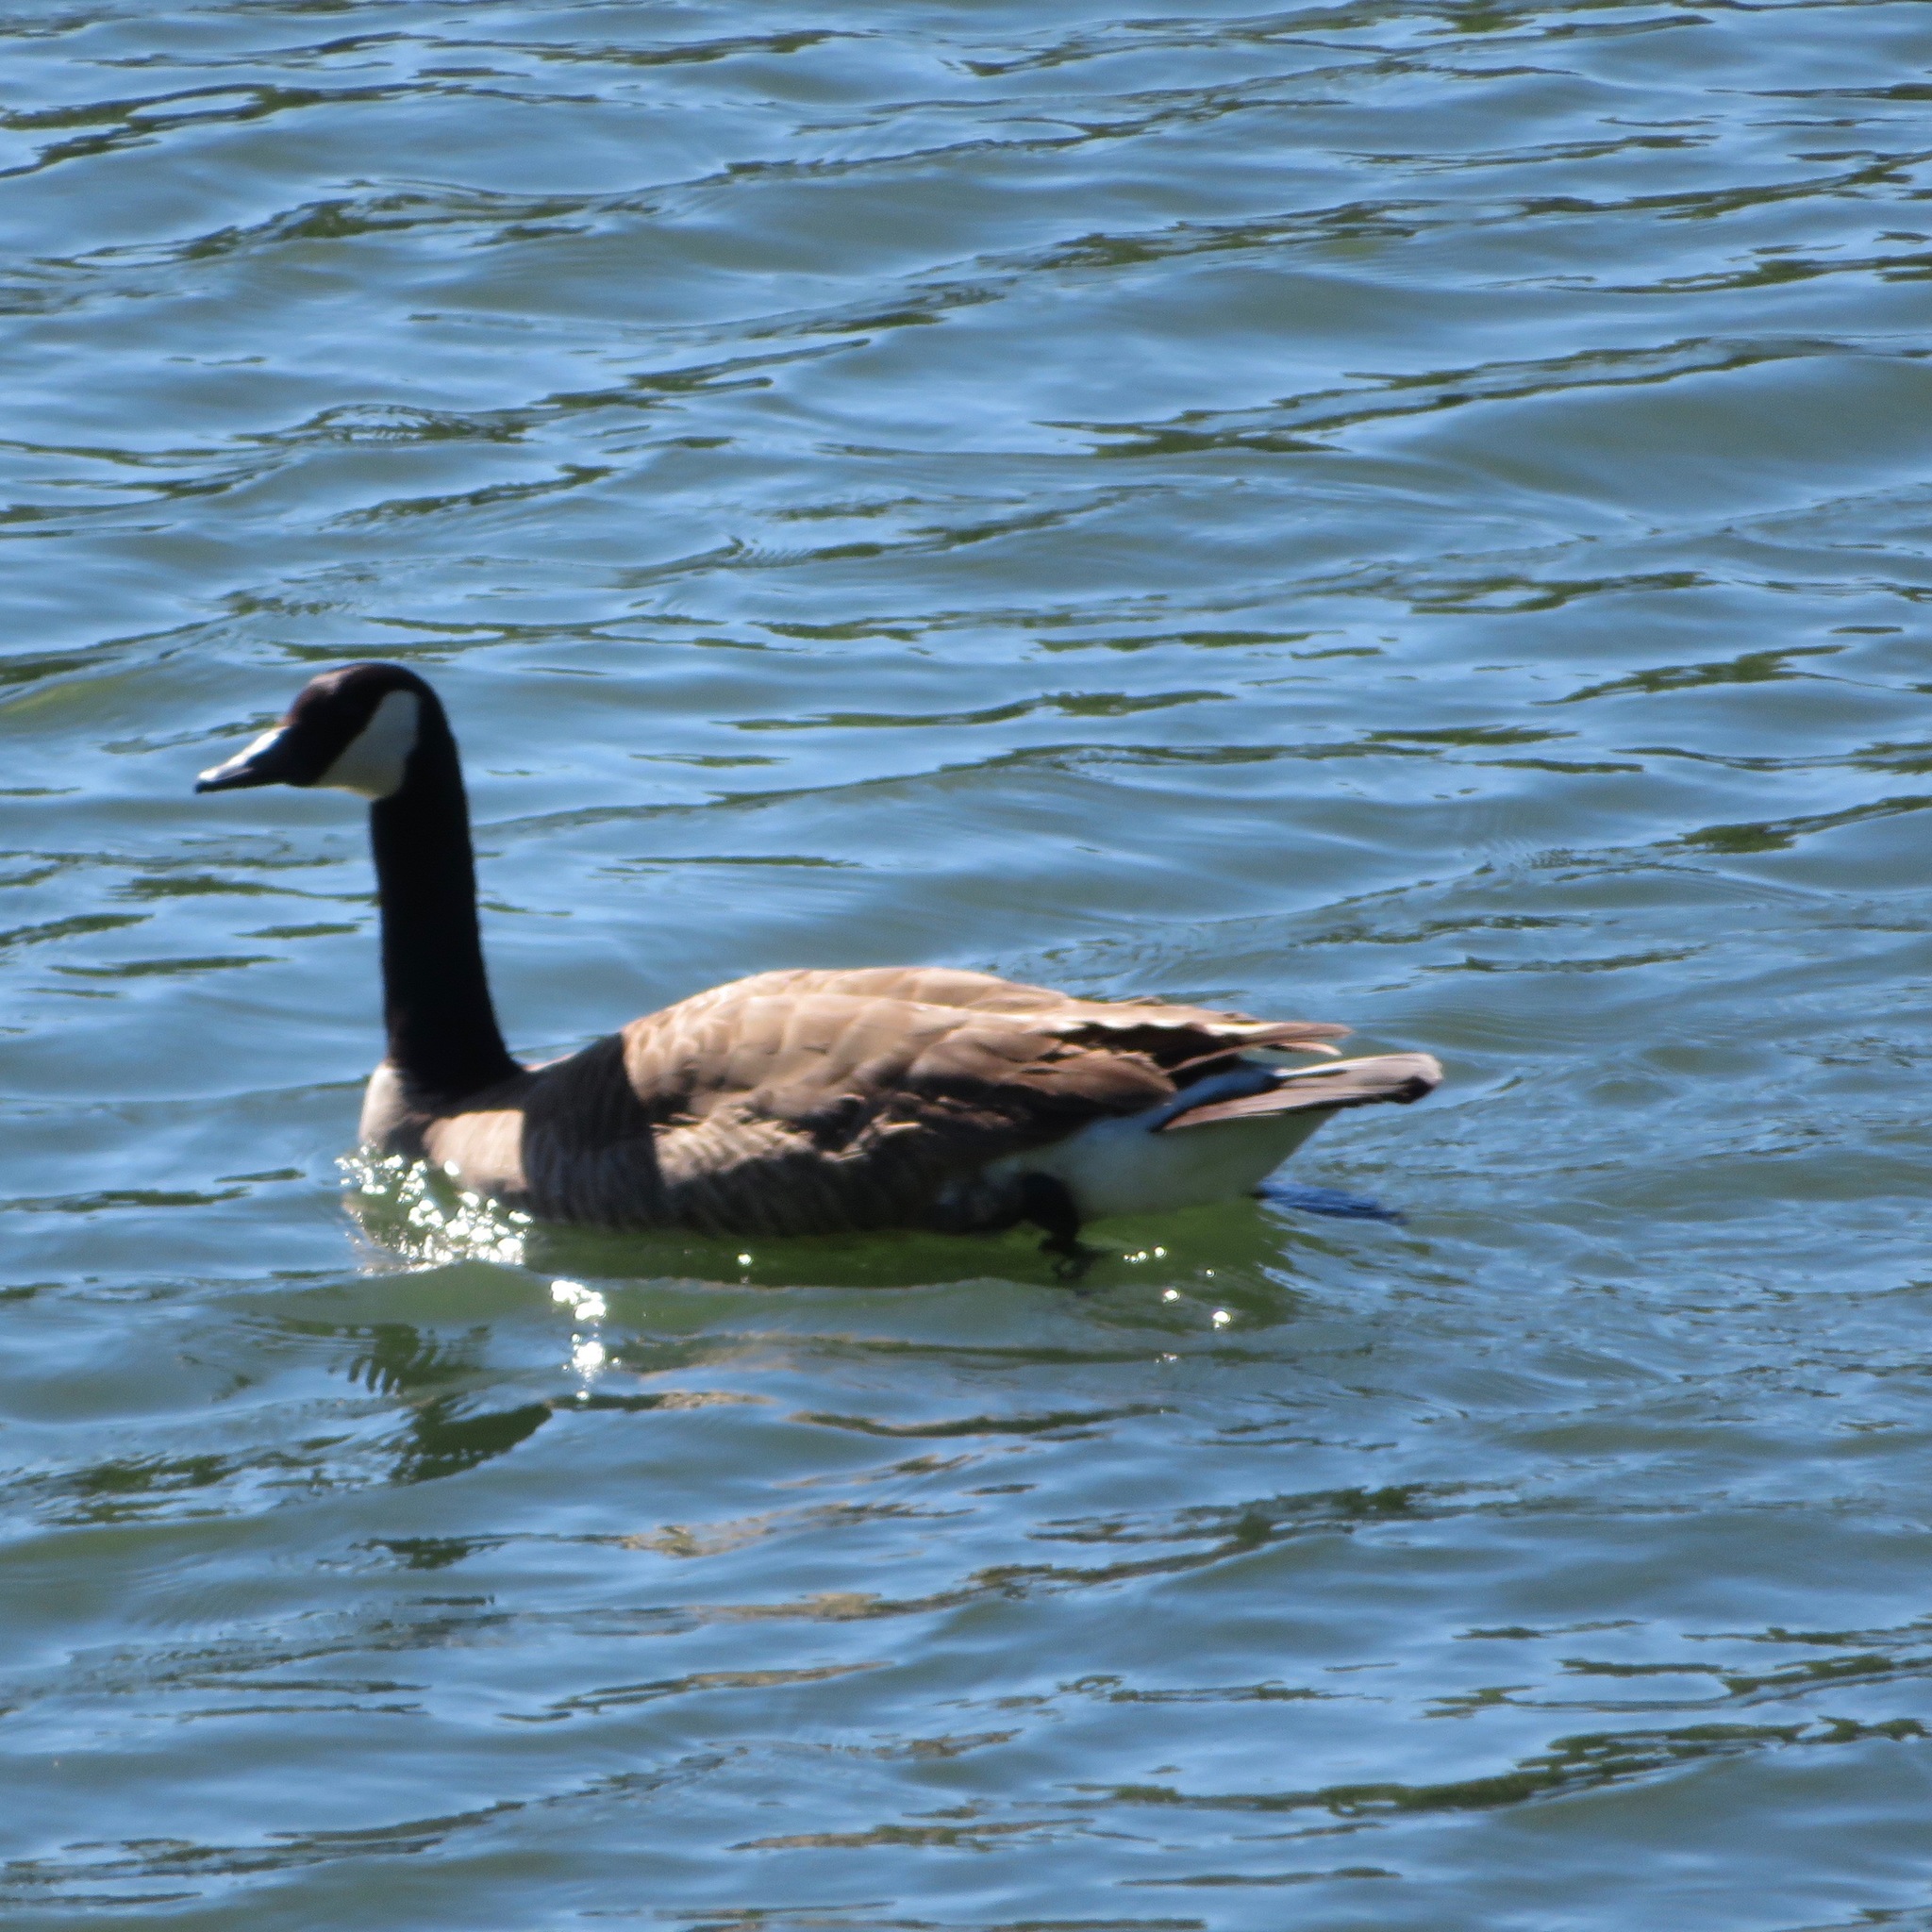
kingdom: Animalia
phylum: Chordata
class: Aves
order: Anseriformes
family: Anatidae
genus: Branta
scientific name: Branta canadensis
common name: Canada goose
